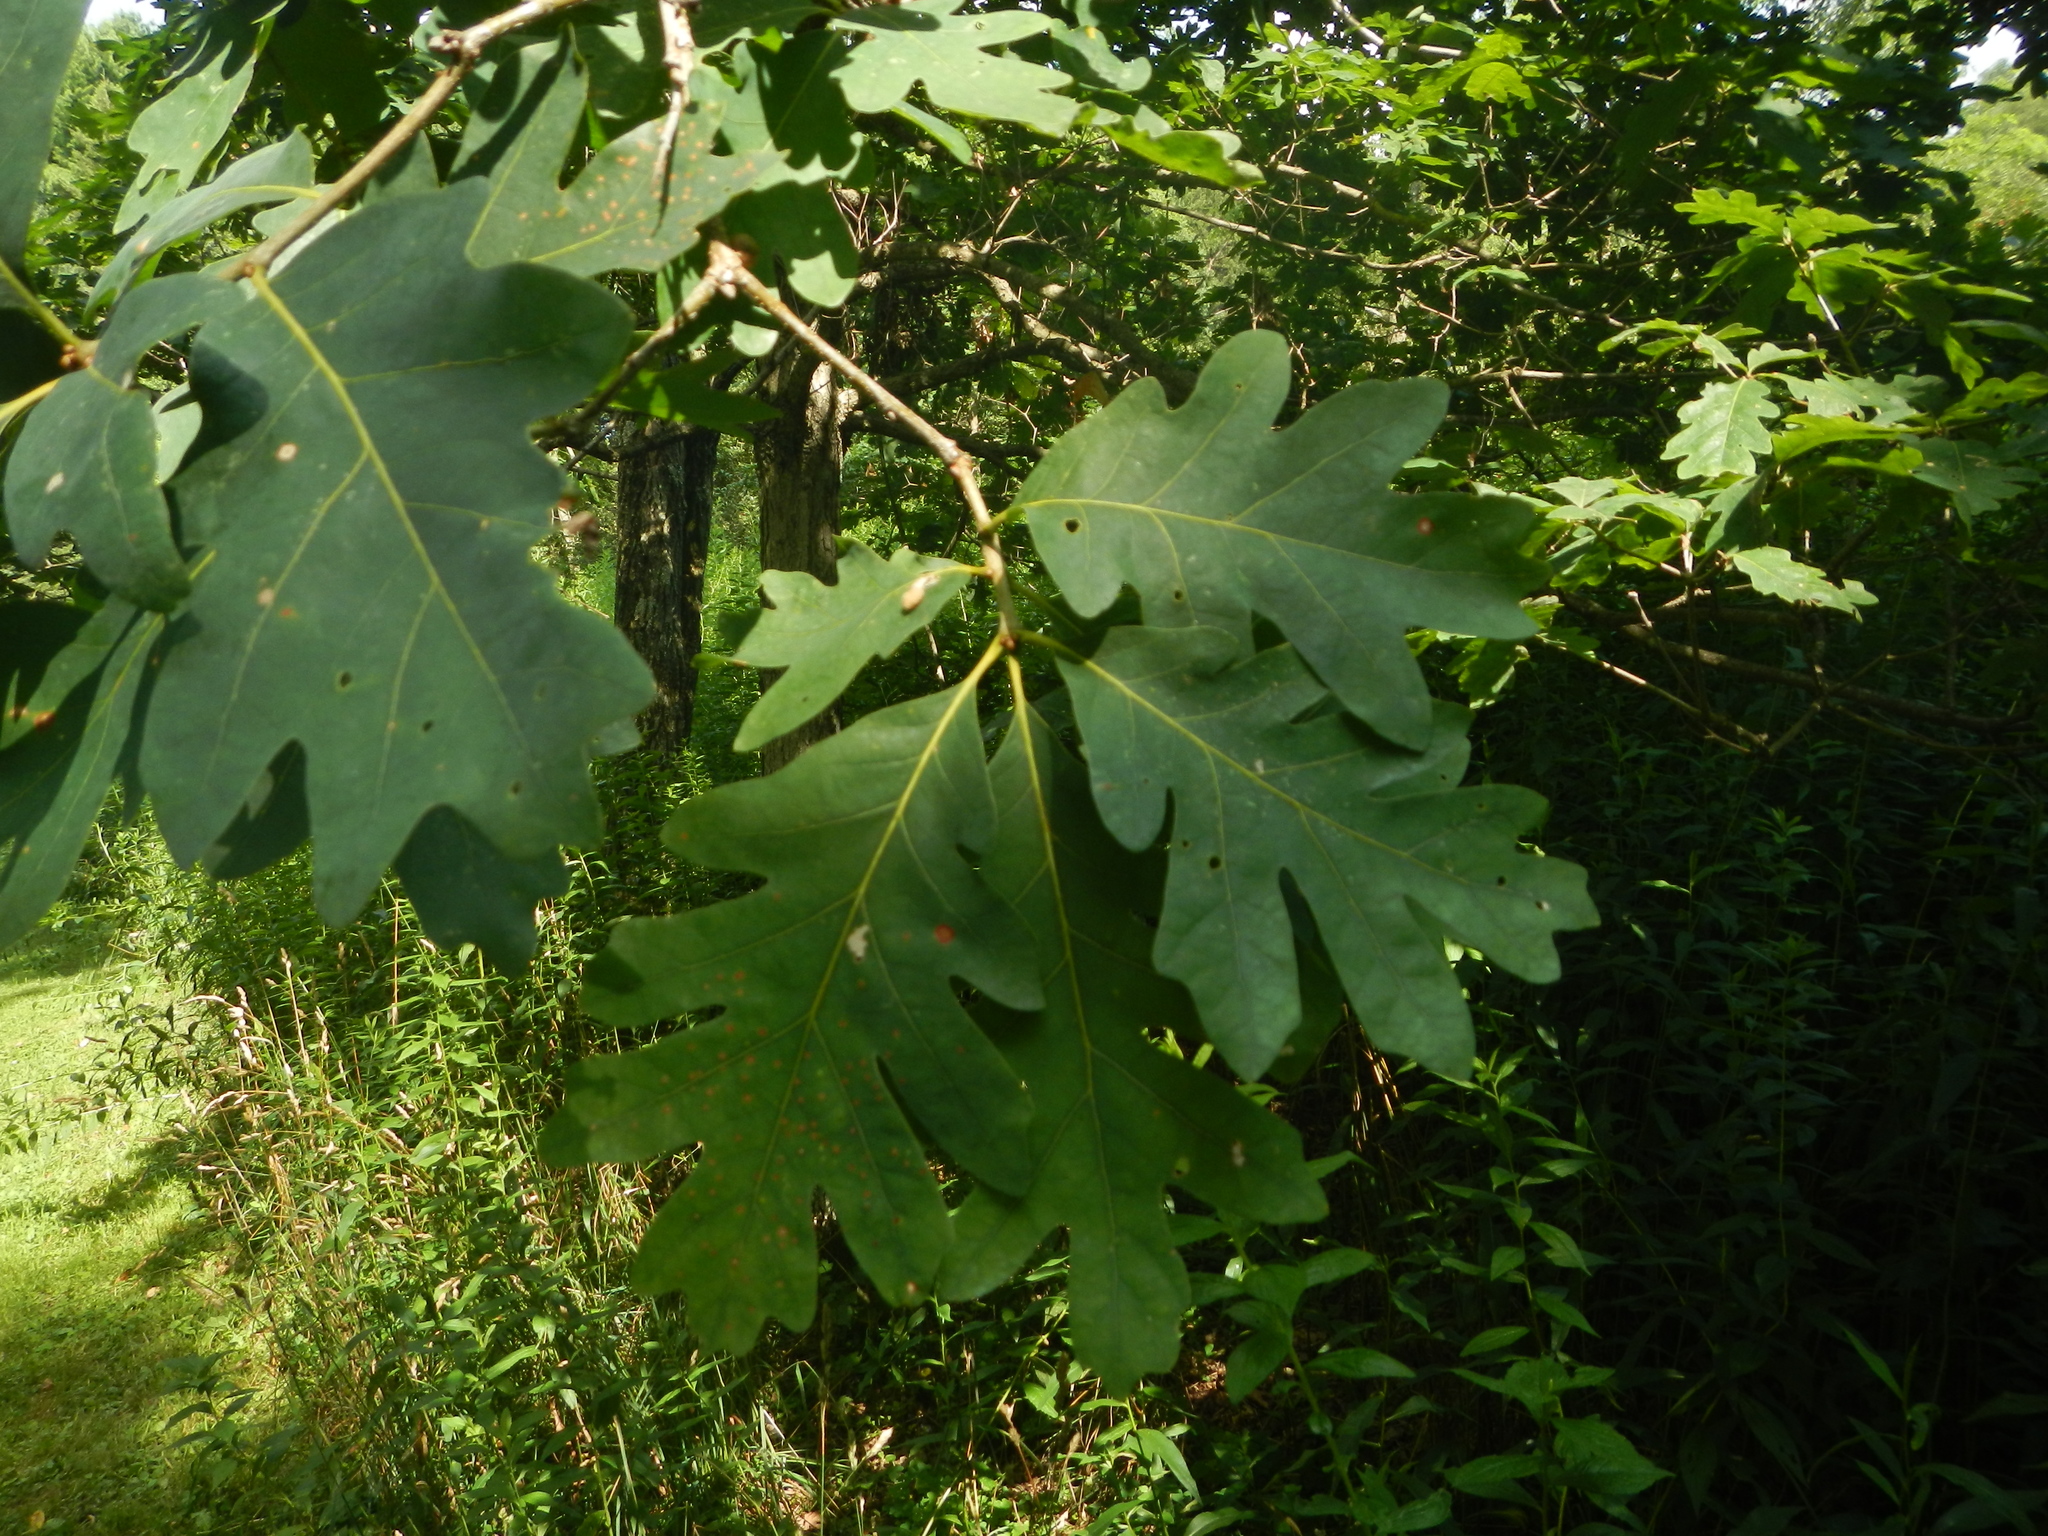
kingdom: Plantae
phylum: Tracheophyta
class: Magnoliopsida
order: Fagales
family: Fagaceae
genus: Quercus
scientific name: Quercus alba
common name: White oak
